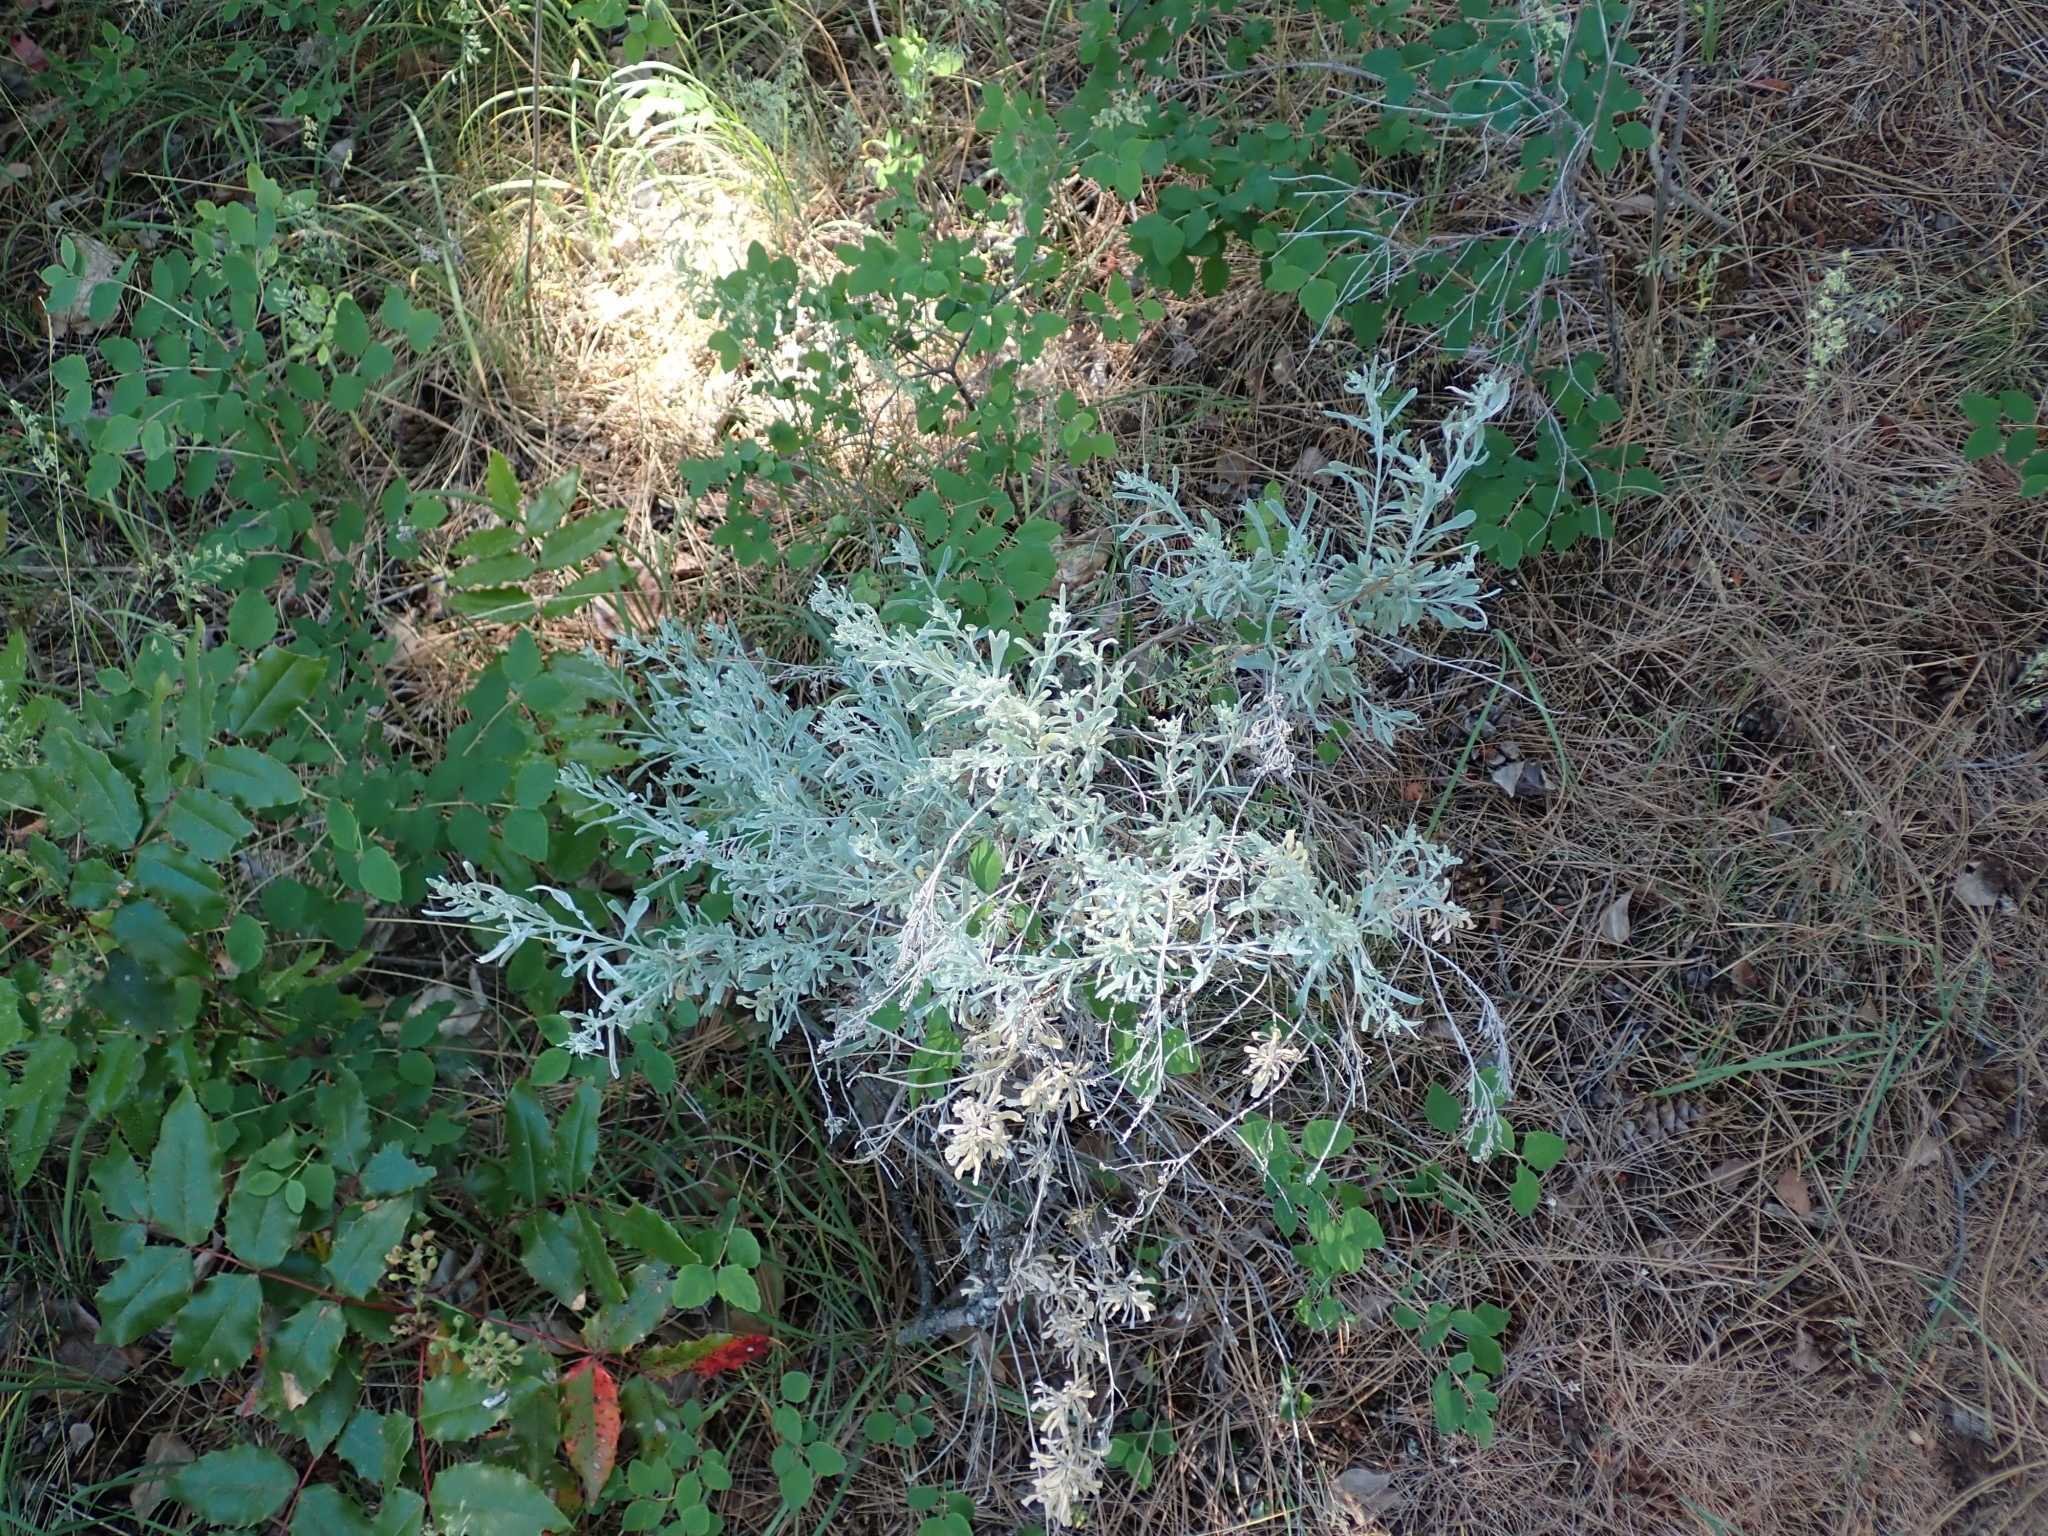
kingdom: Plantae
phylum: Tracheophyta
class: Magnoliopsida
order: Asterales
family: Asteraceae
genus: Artemisia
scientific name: Artemisia tridentata
